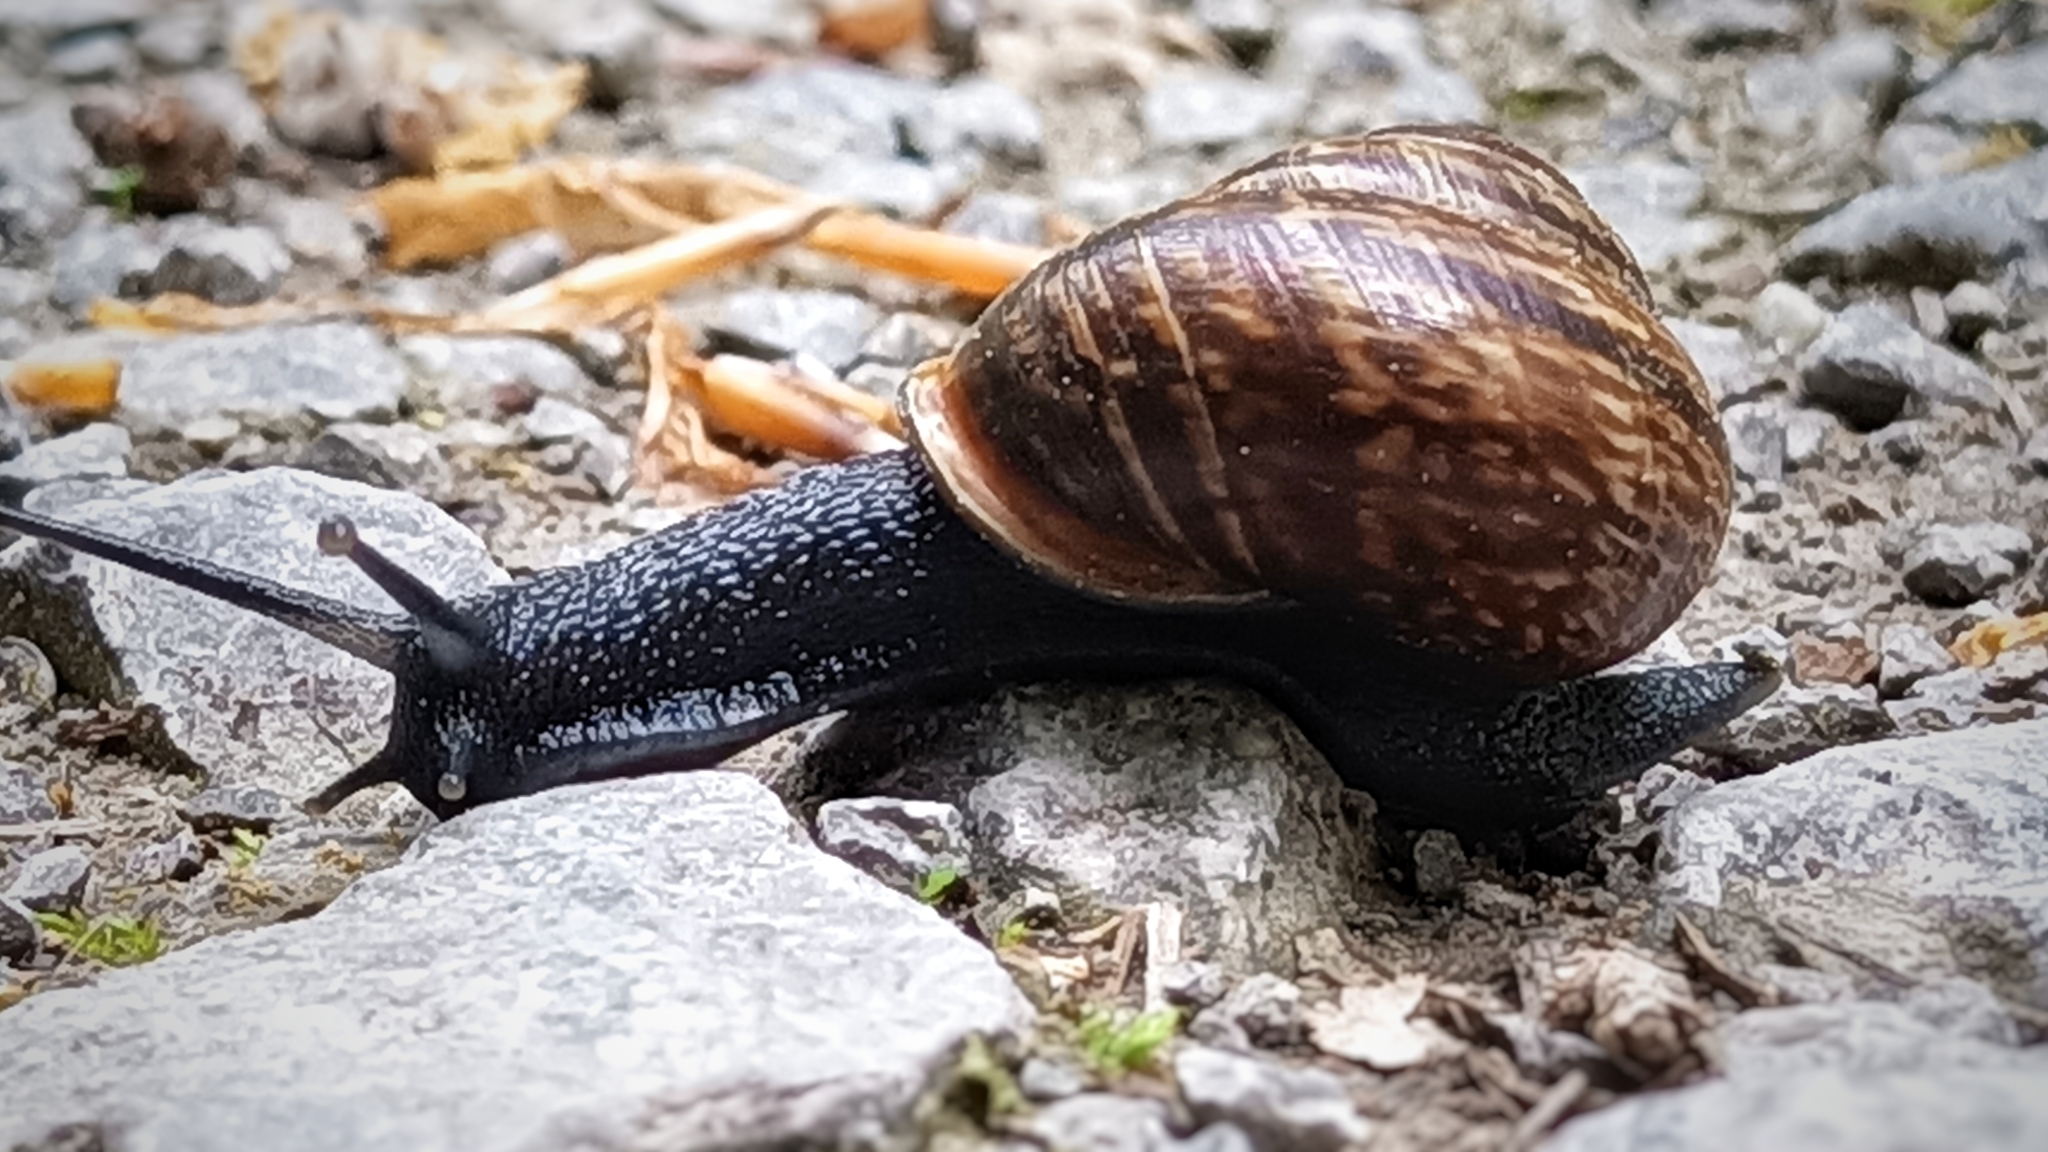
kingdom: Animalia
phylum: Mollusca
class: Gastropoda
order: Stylommatophora
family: Helicidae
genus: Arianta
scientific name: Arianta arbustorum
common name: Copse snail
